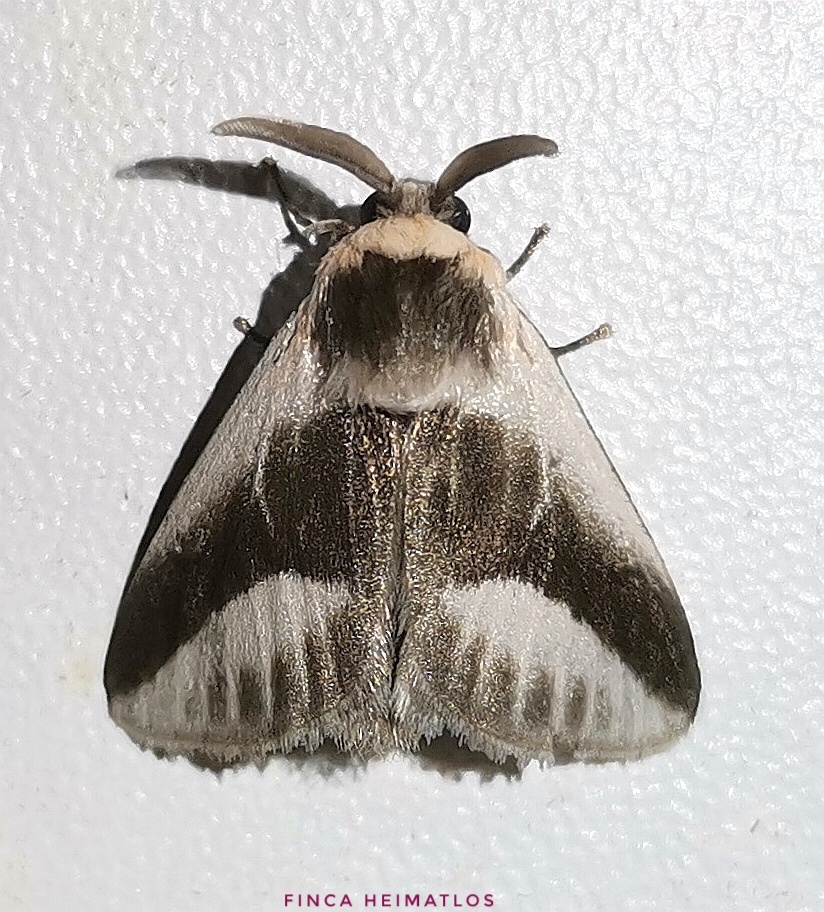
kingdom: Animalia
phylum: Arthropoda
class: Insecta
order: Lepidoptera
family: Megalopygidae
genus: Mesoscia
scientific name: Mesoscia dumilla
